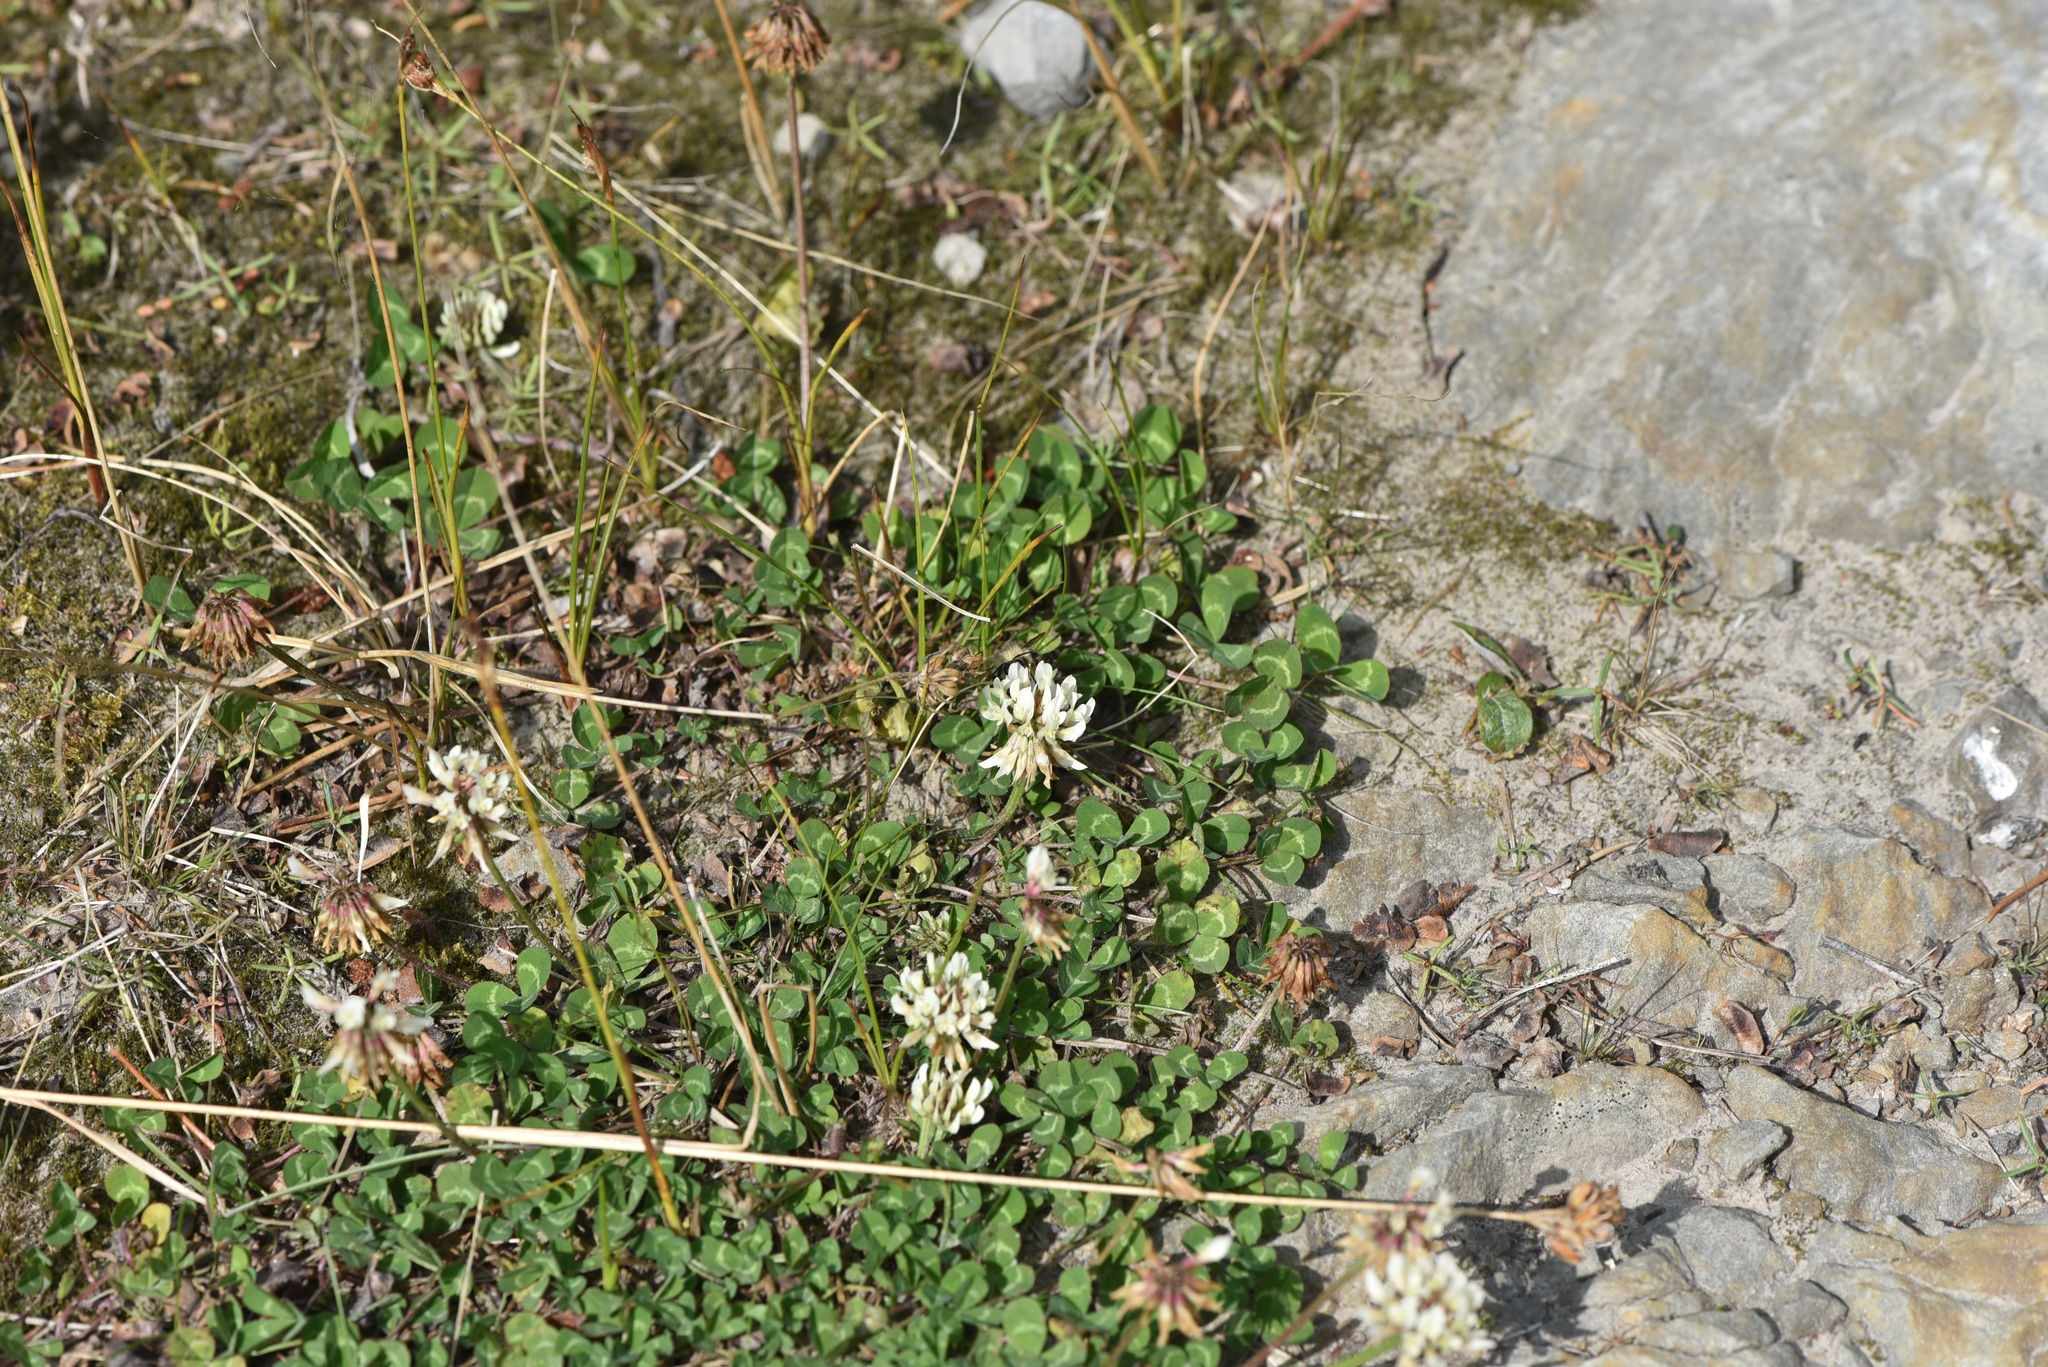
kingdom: Plantae
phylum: Tracheophyta
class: Magnoliopsida
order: Fabales
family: Fabaceae
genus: Trifolium
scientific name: Trifolium repens
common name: White clover
